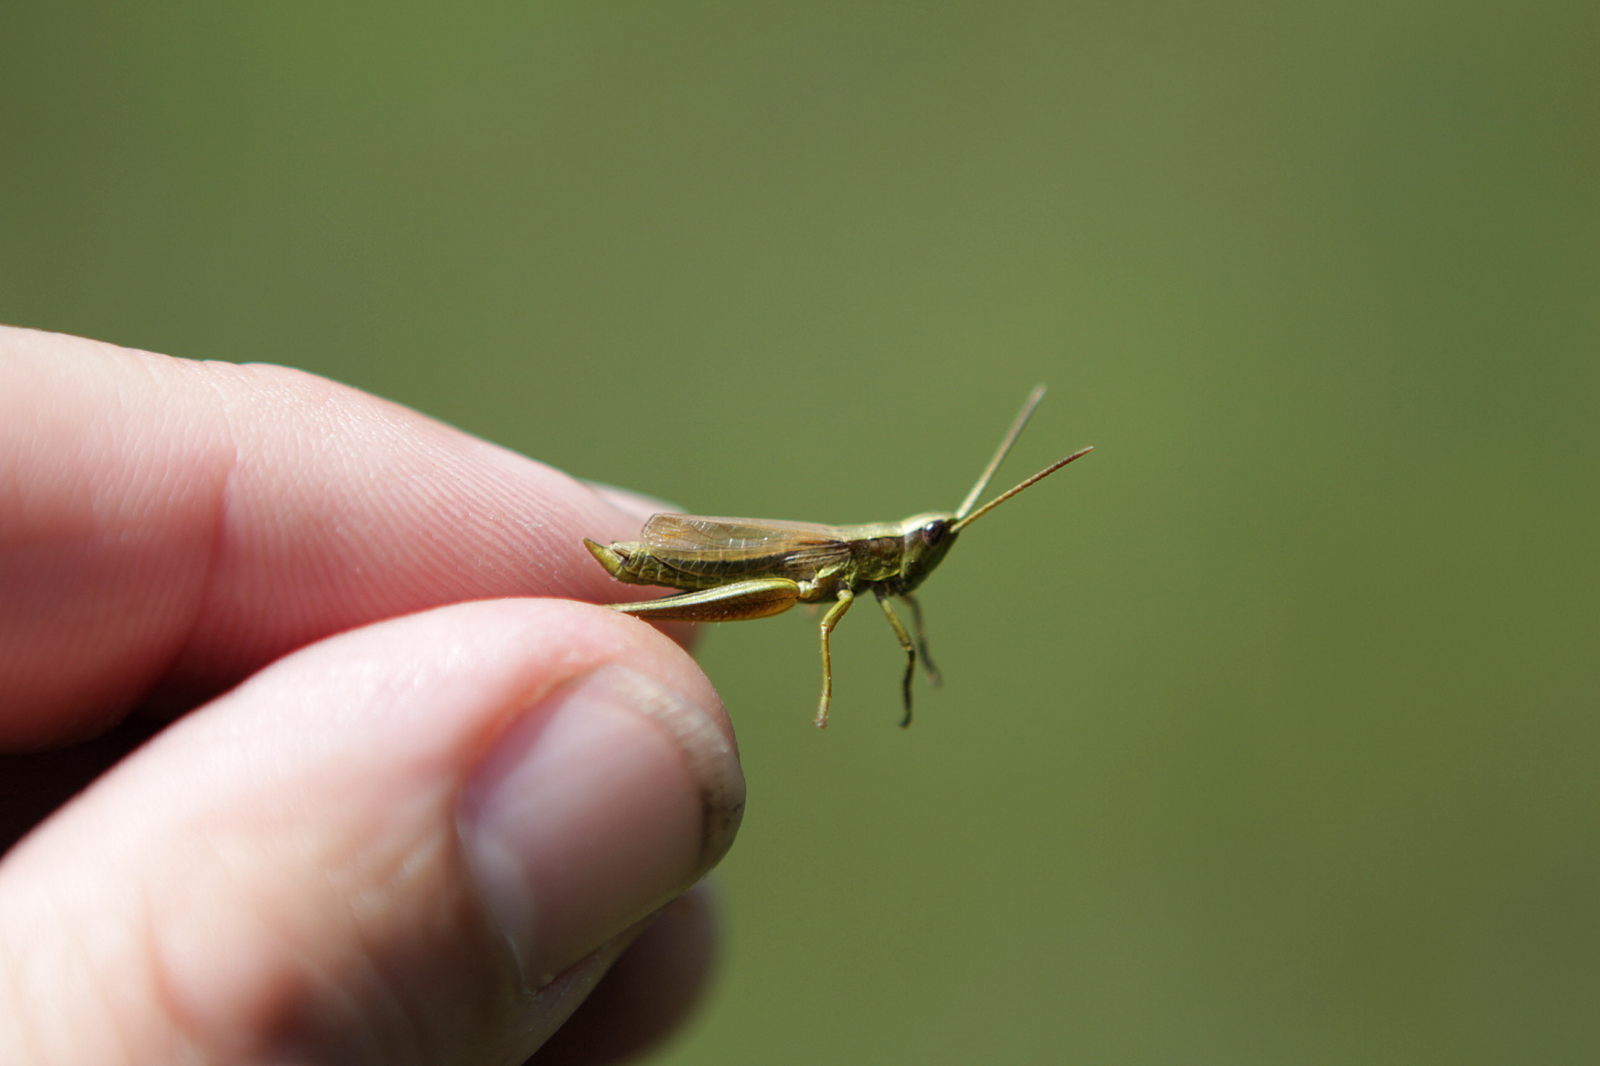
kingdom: Animalia
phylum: Arthropoda
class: Insecta
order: Orthoptera
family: Acrididae
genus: Chrysochraon
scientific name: Chrysochraon dispar
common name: Large gold grasshopper
